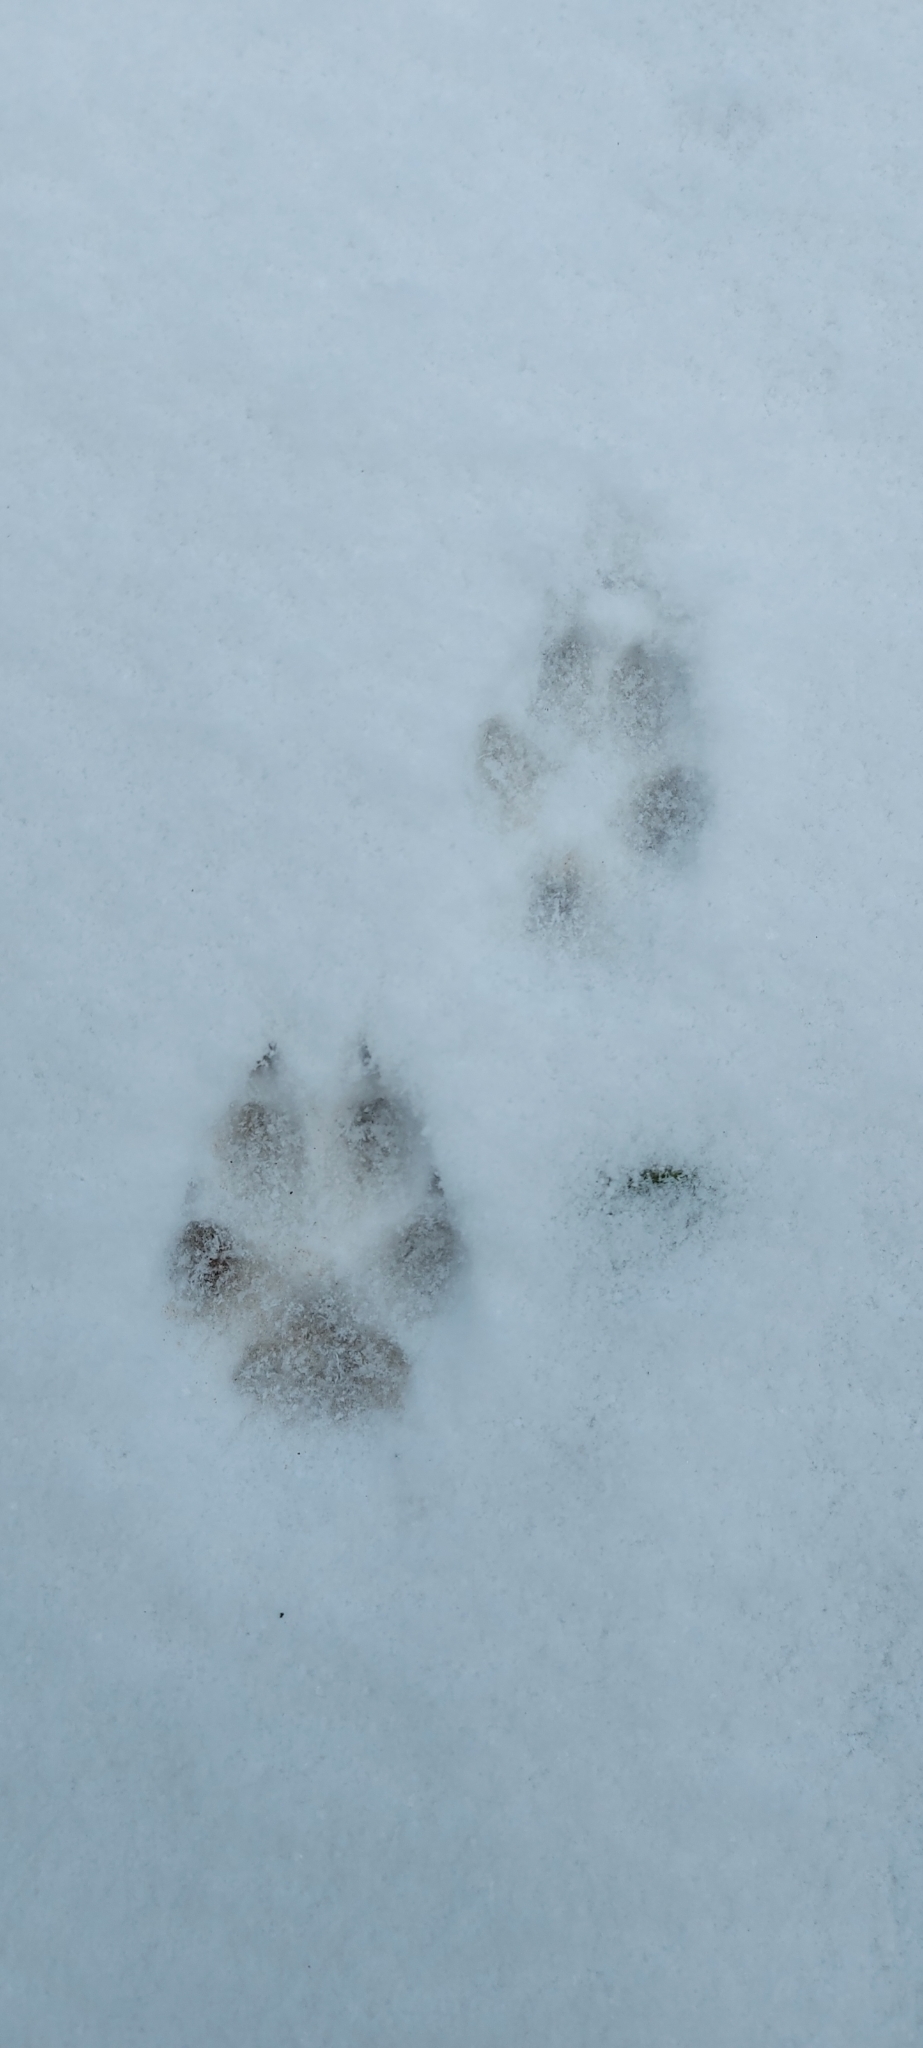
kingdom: Animalia
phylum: Chordata
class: Mammalia
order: Carnivora
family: Canidae
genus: Vulpes
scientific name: Vulpes vulpes
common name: Red fox
